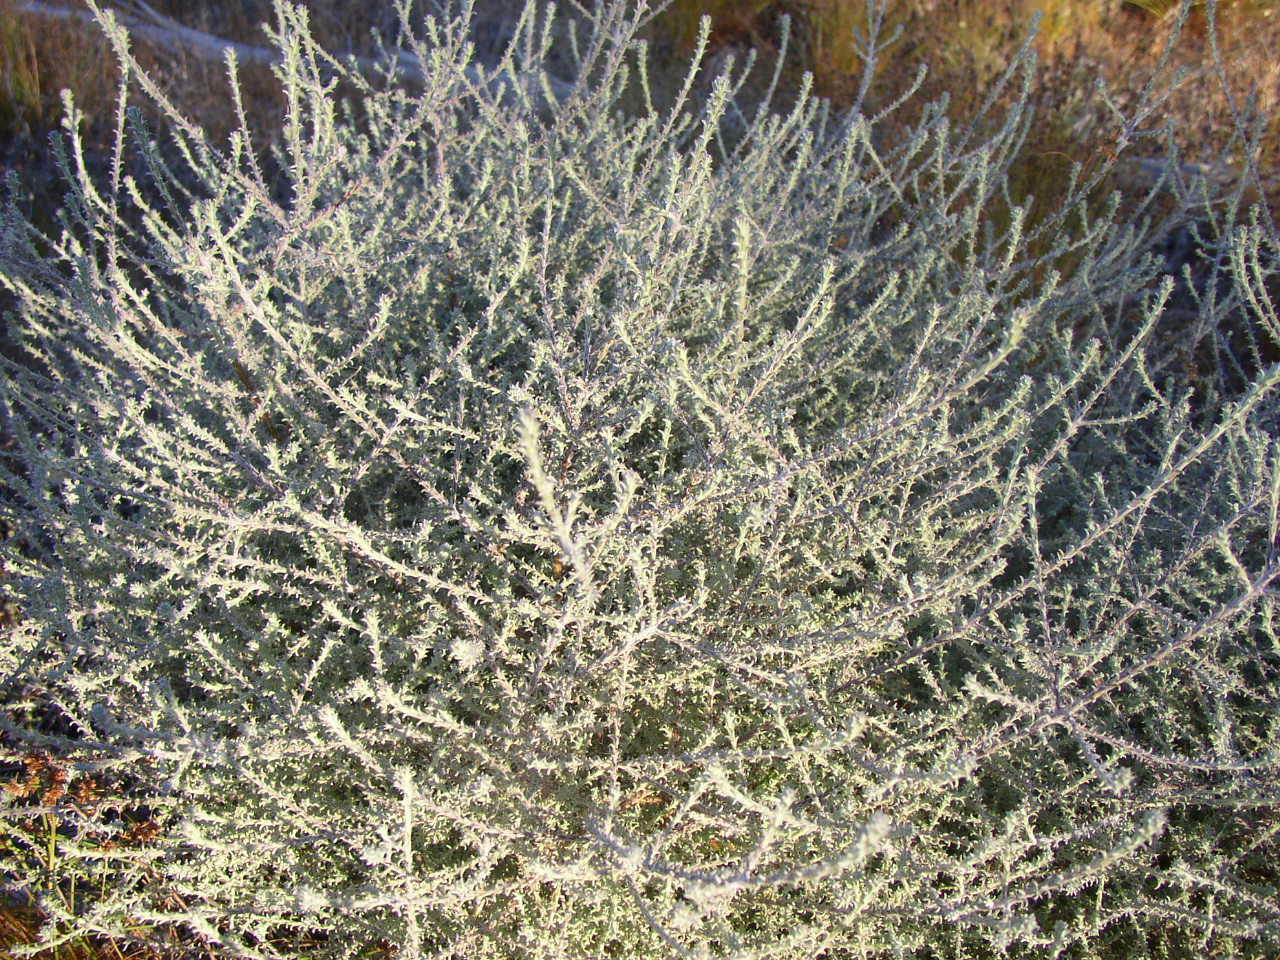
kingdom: Plantae
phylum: Tracheophyta
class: Magnoliopsida
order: Asterales
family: Asteraceae
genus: Seriphium
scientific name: Seriphium plumosum
